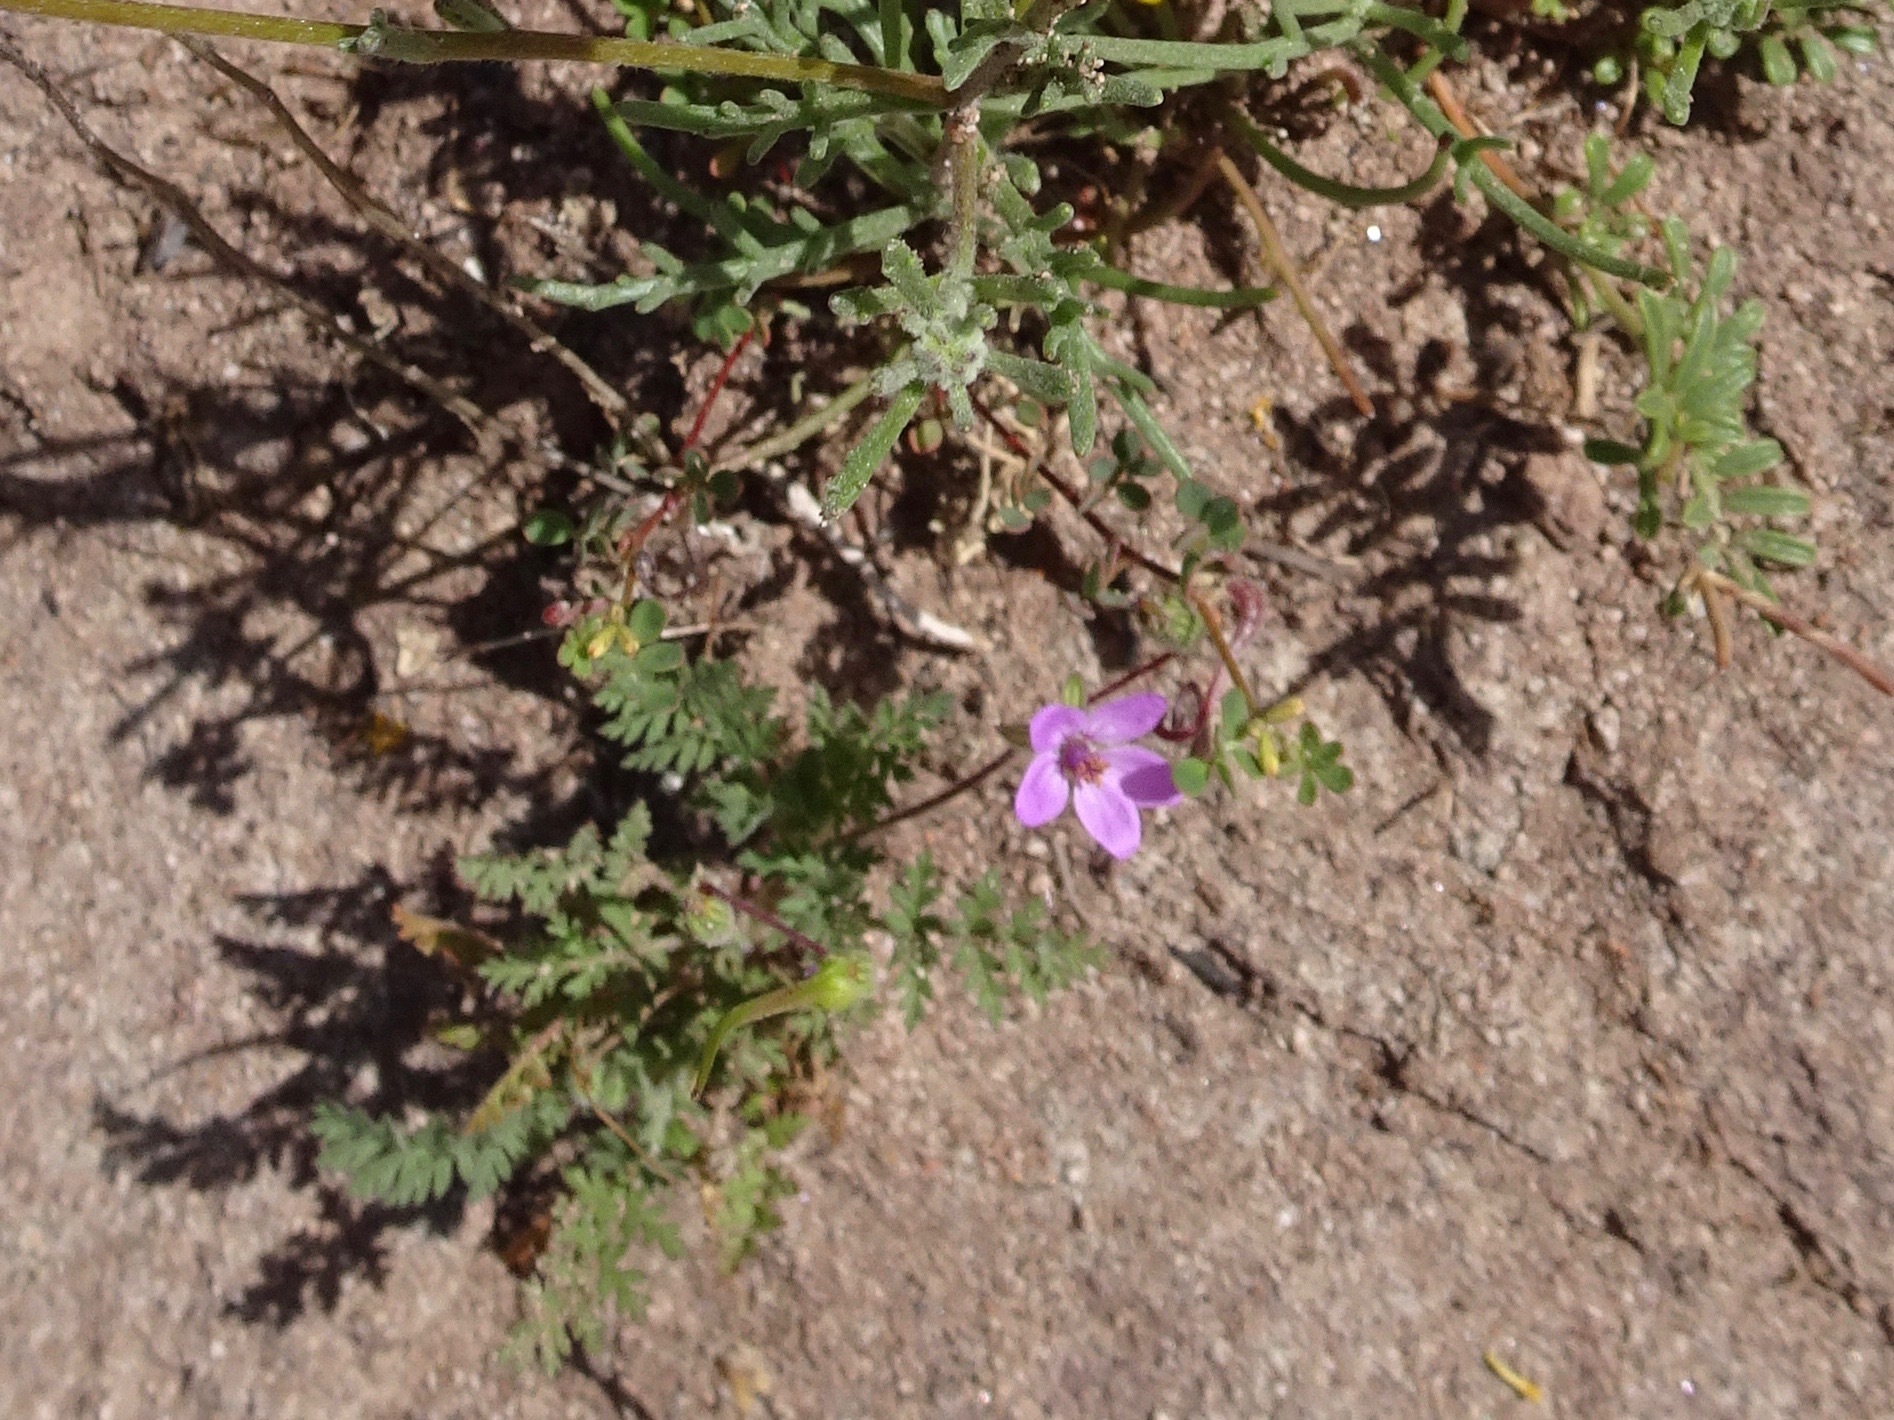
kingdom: Plantae
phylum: Tracheophyta
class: Magnoliopsida
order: Geraniales
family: Geraniaceae
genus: Erodium
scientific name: Erodium cicutarium
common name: Common stork's-bill
